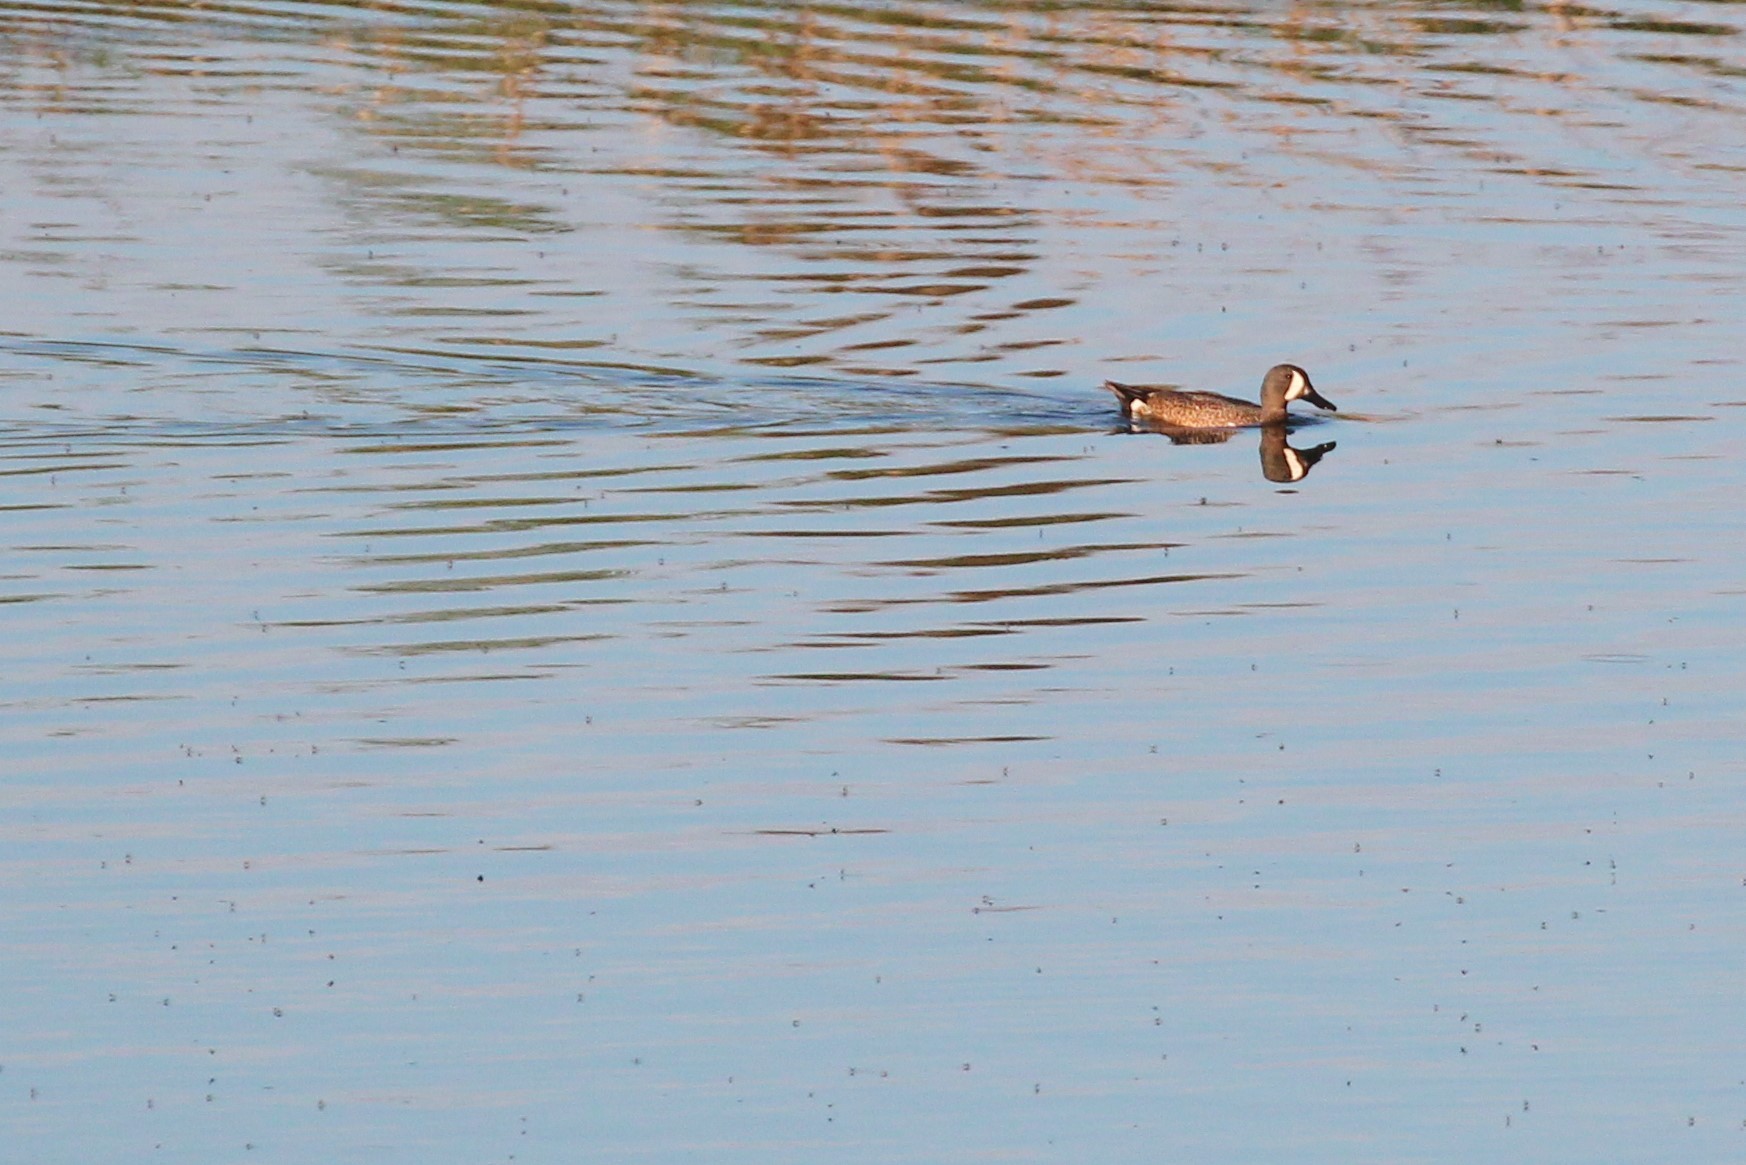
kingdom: Animalia
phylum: Chordata
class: Aves
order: Anseriformes
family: Anatidae
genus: Spatula
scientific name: Spatula discors
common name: Blue-winged teal
